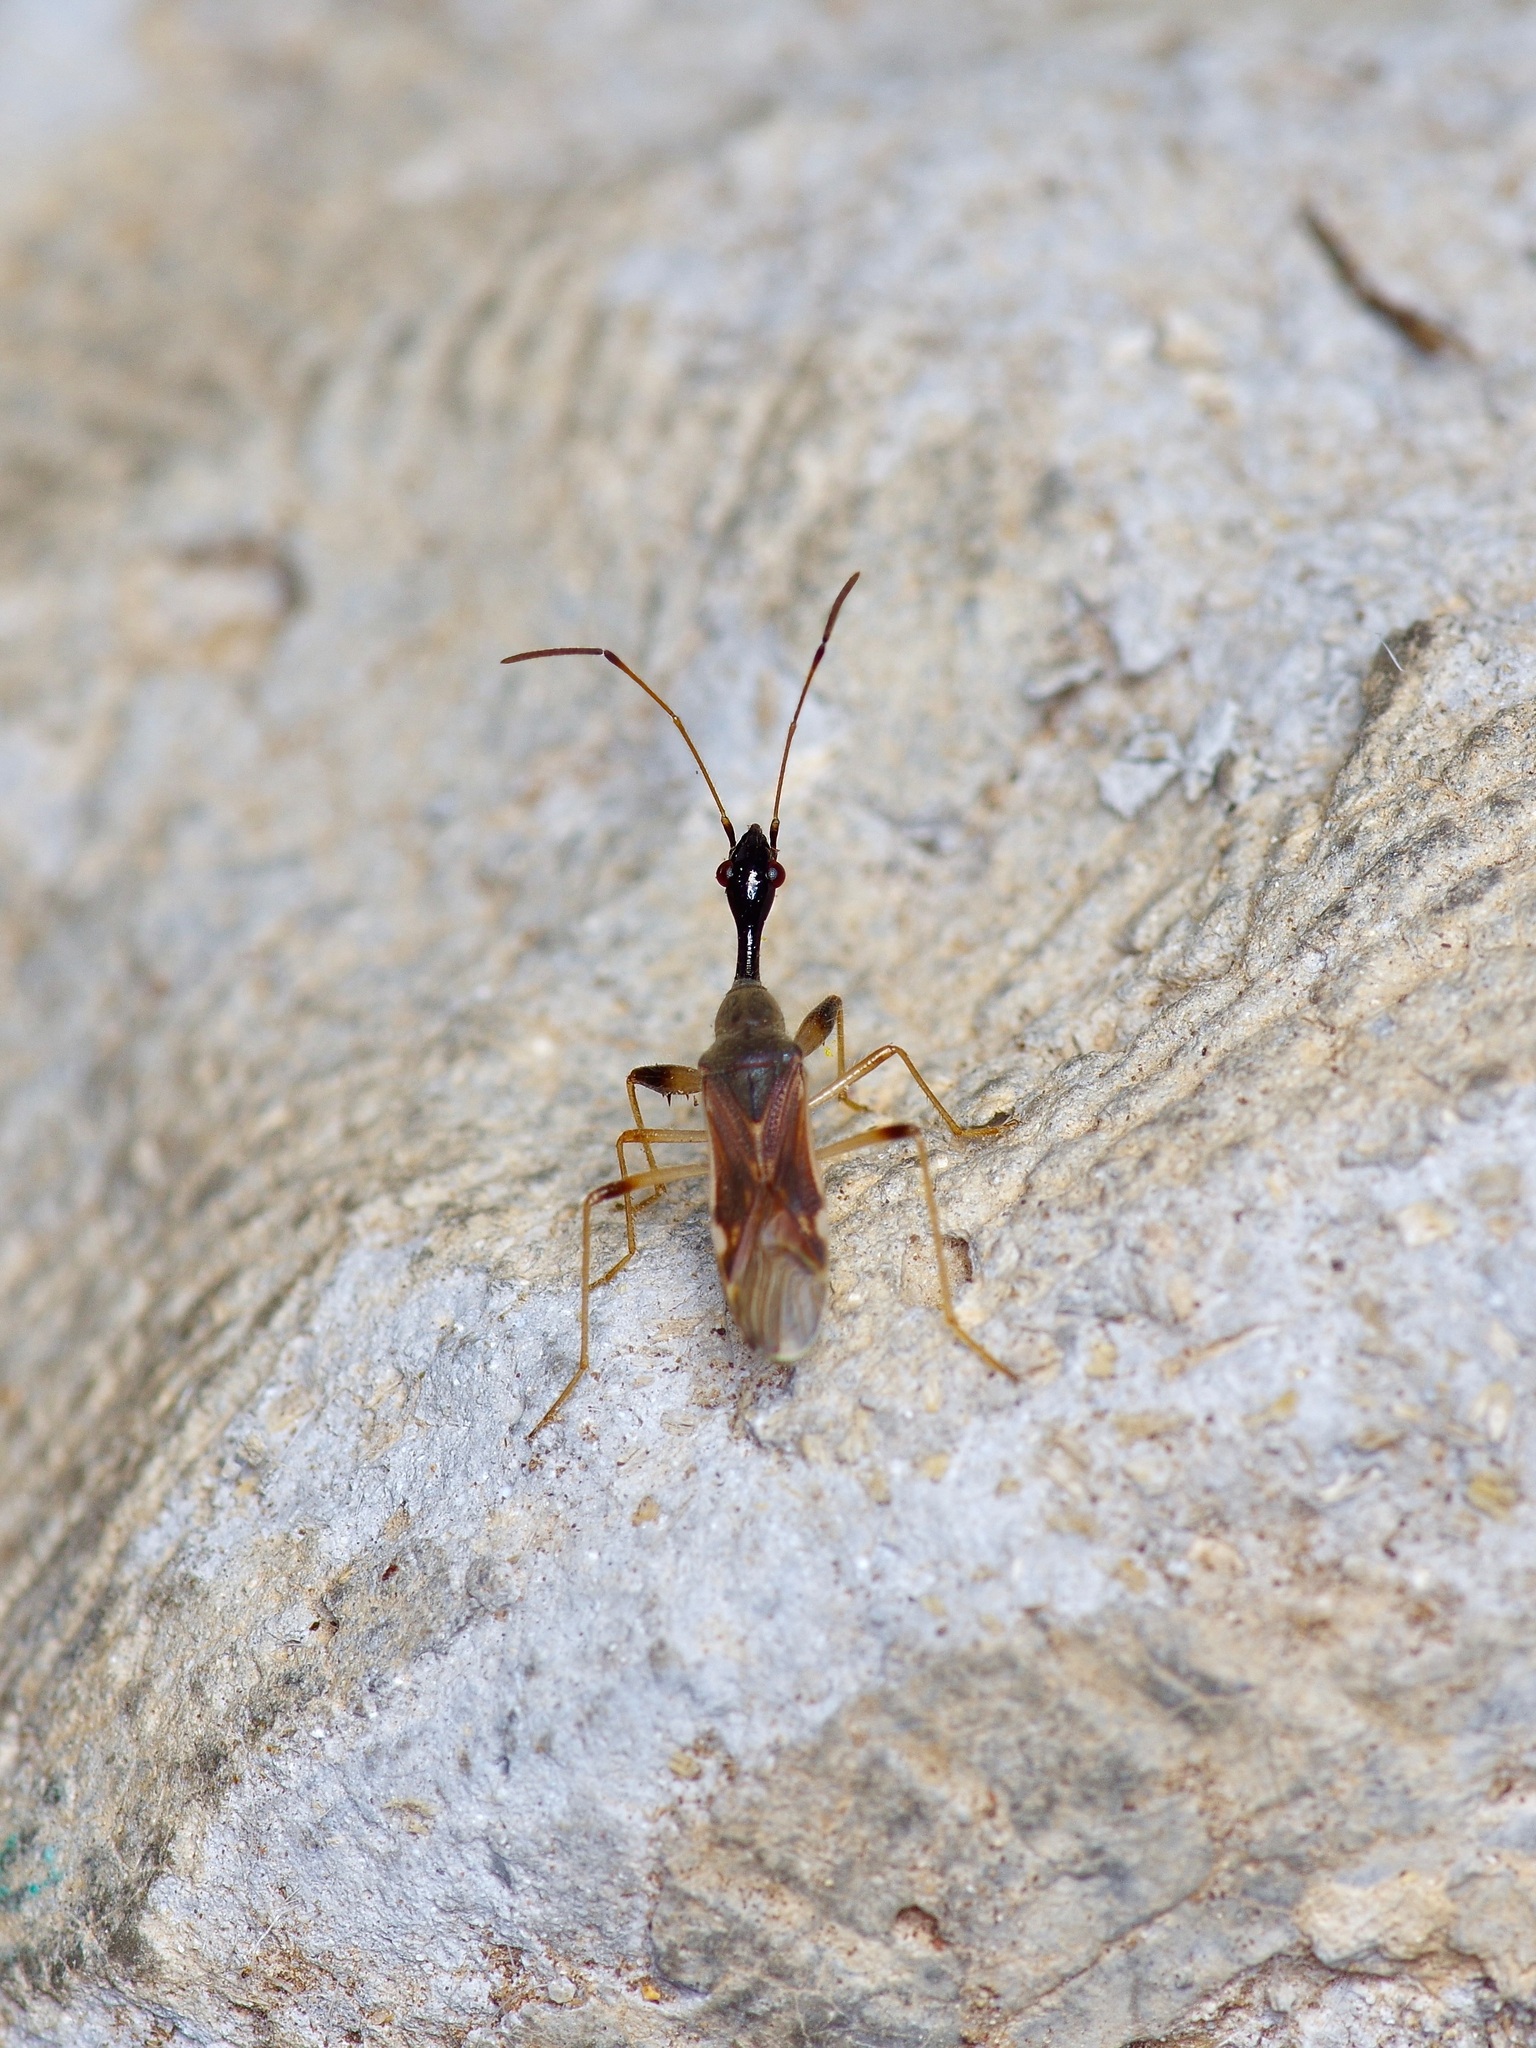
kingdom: Animalia
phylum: Arthropoda
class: Insecta
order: Hemiptera
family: Rhyparochromidae
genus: Myodocha
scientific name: Myodocha serripes
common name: Long-necked seed bug
